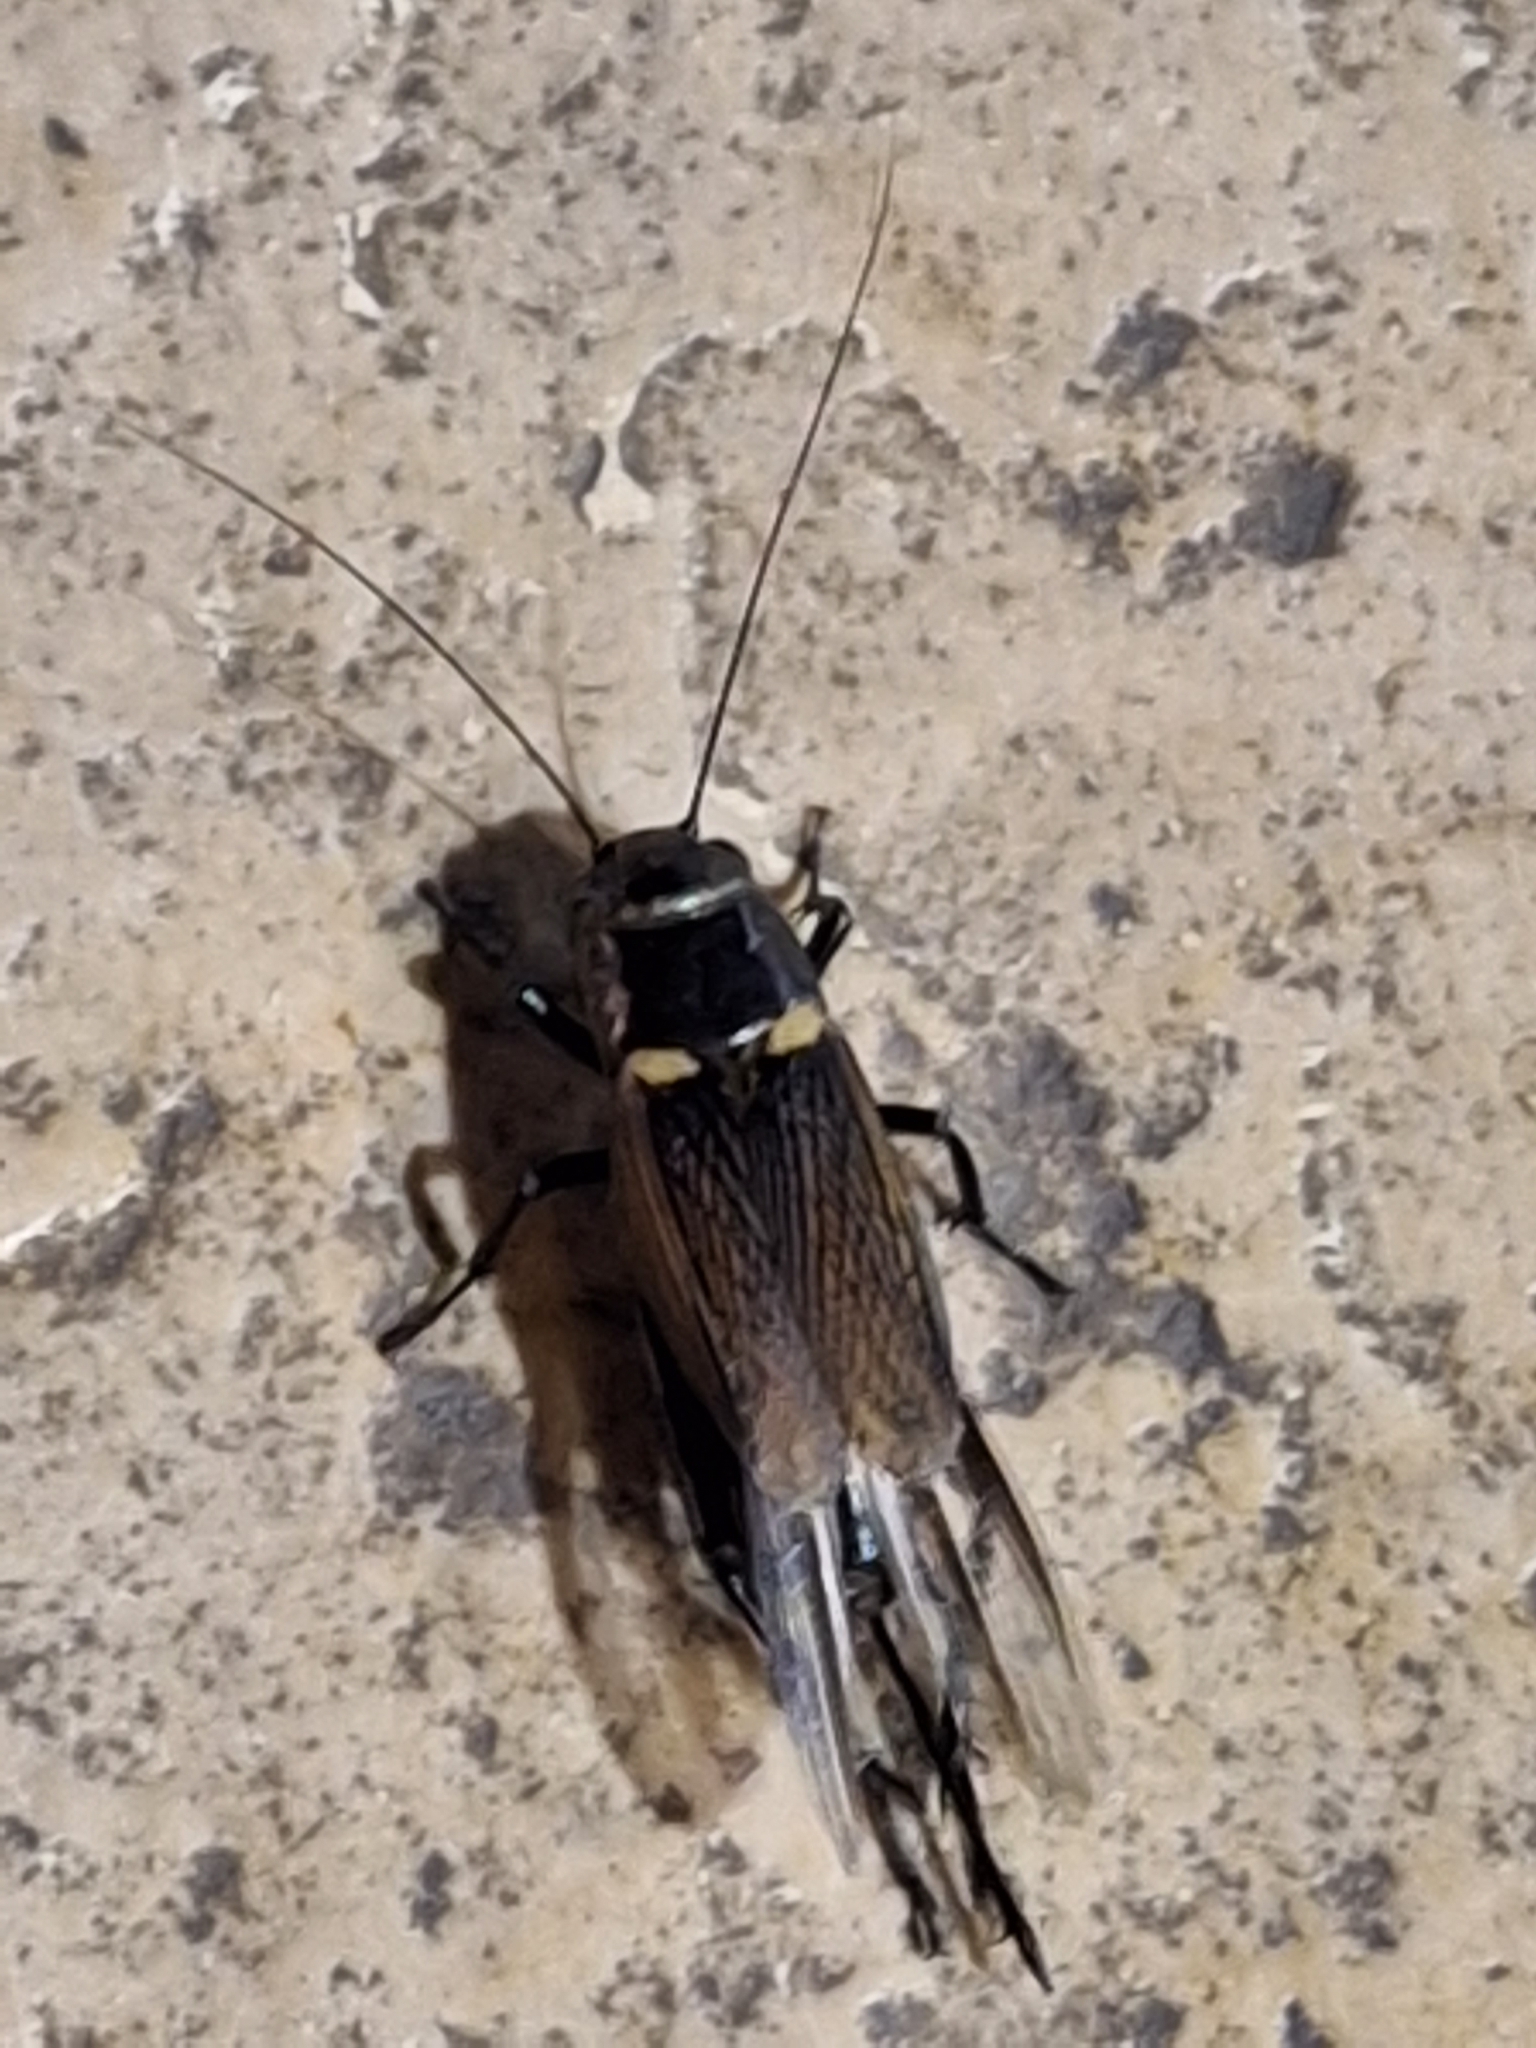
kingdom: Animalia
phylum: Arthropoda
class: Insecta
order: Orthoptera
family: Gryllidae
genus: Gryllus
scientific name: Gryllus bimaculatus
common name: Two-spotted cricket
